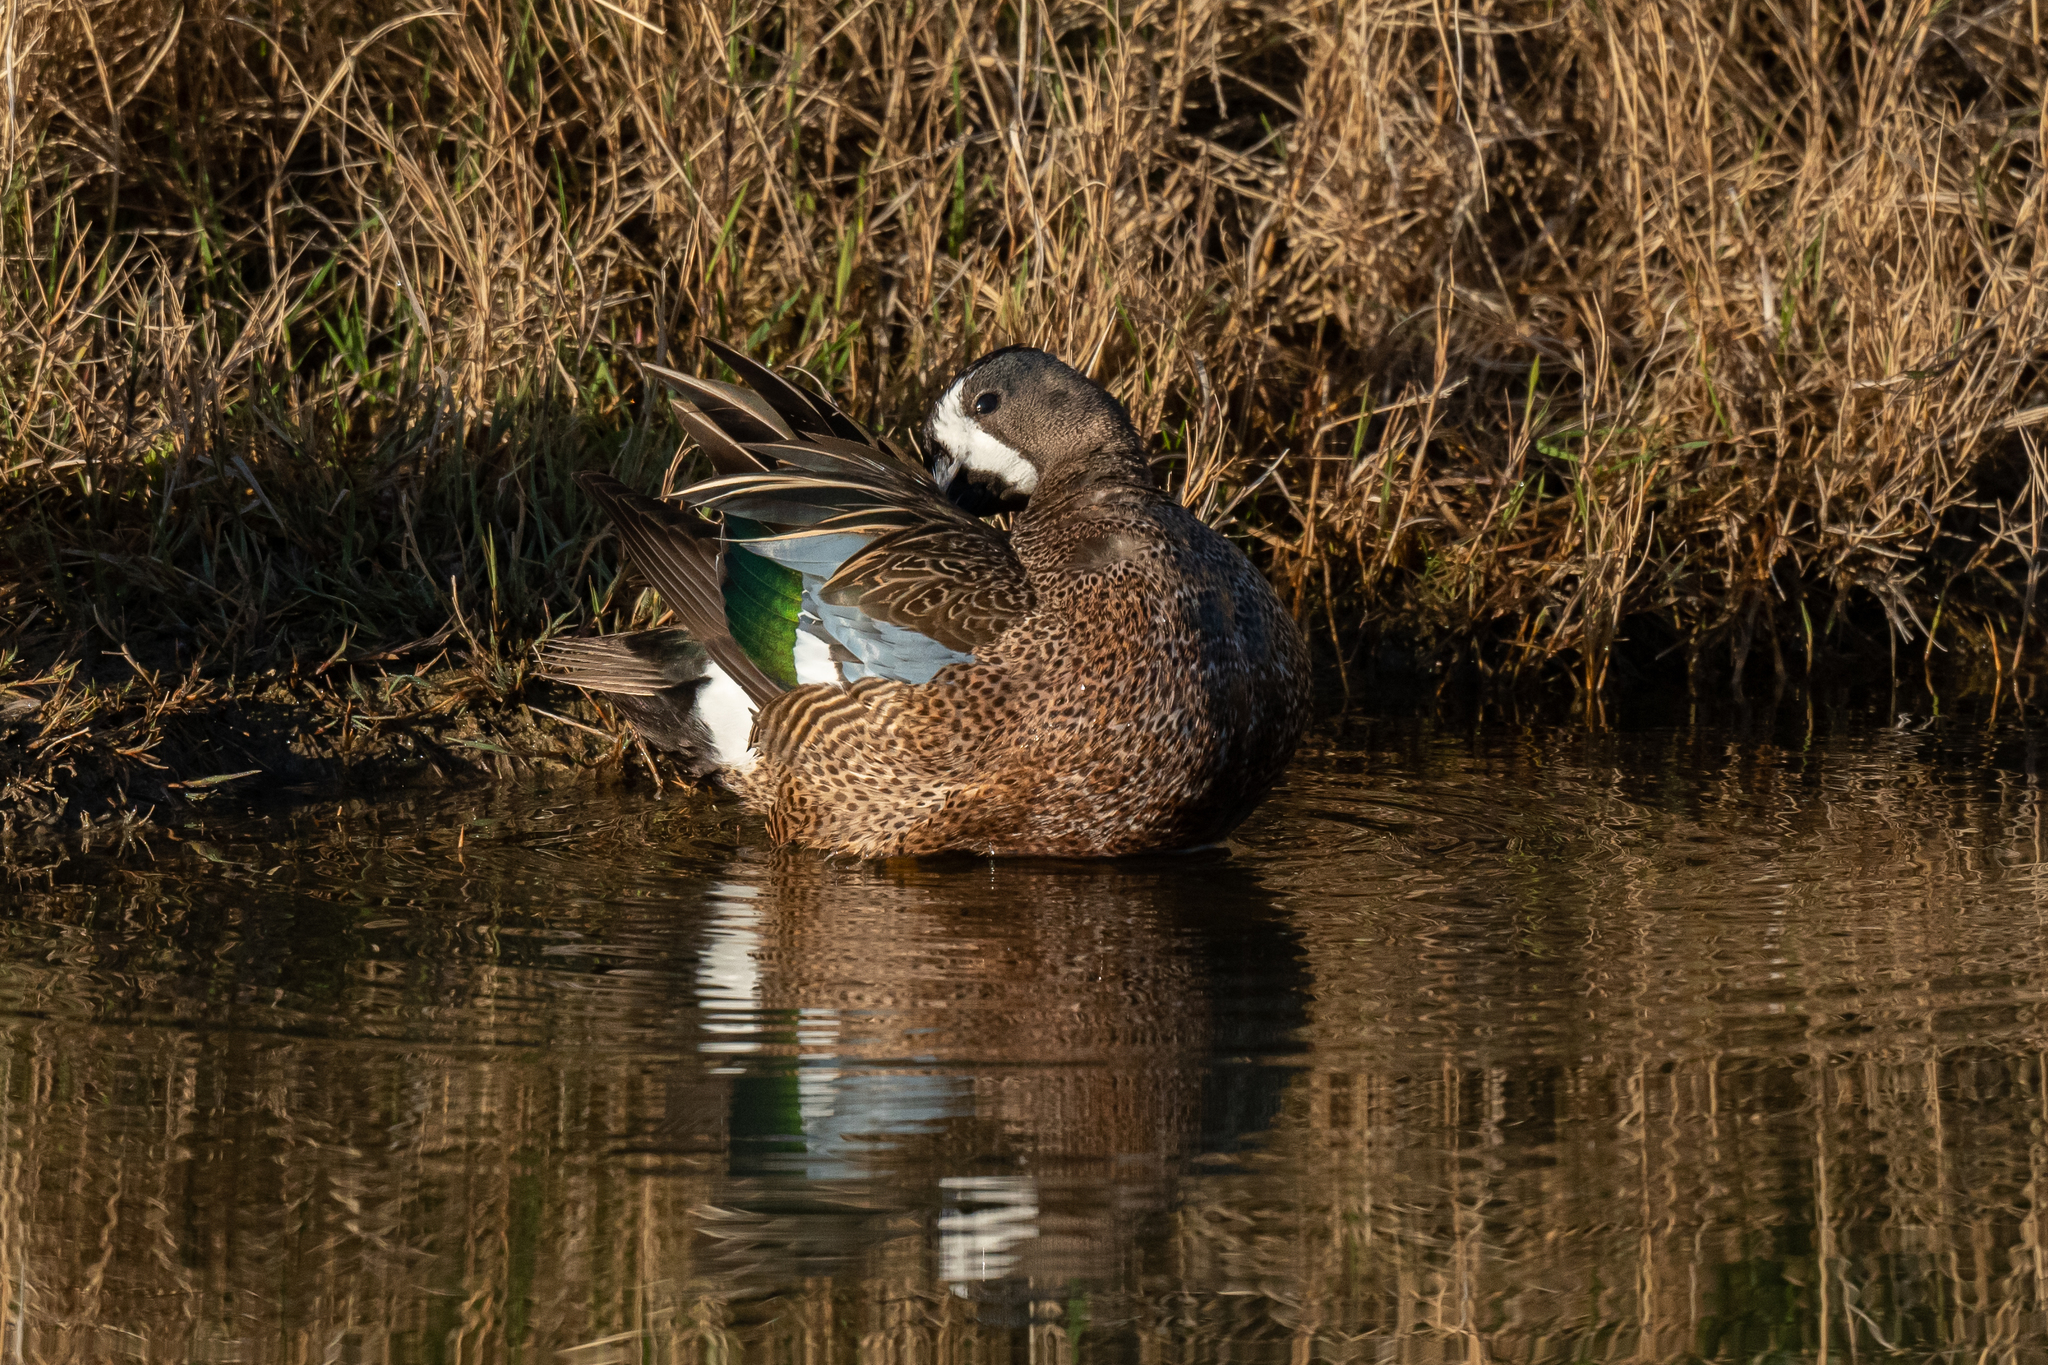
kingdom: Animalia
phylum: Chordata
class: Aves
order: Anseriformes
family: Anatidae
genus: Spatula
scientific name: Spatula discors
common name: Blue-winged teal
